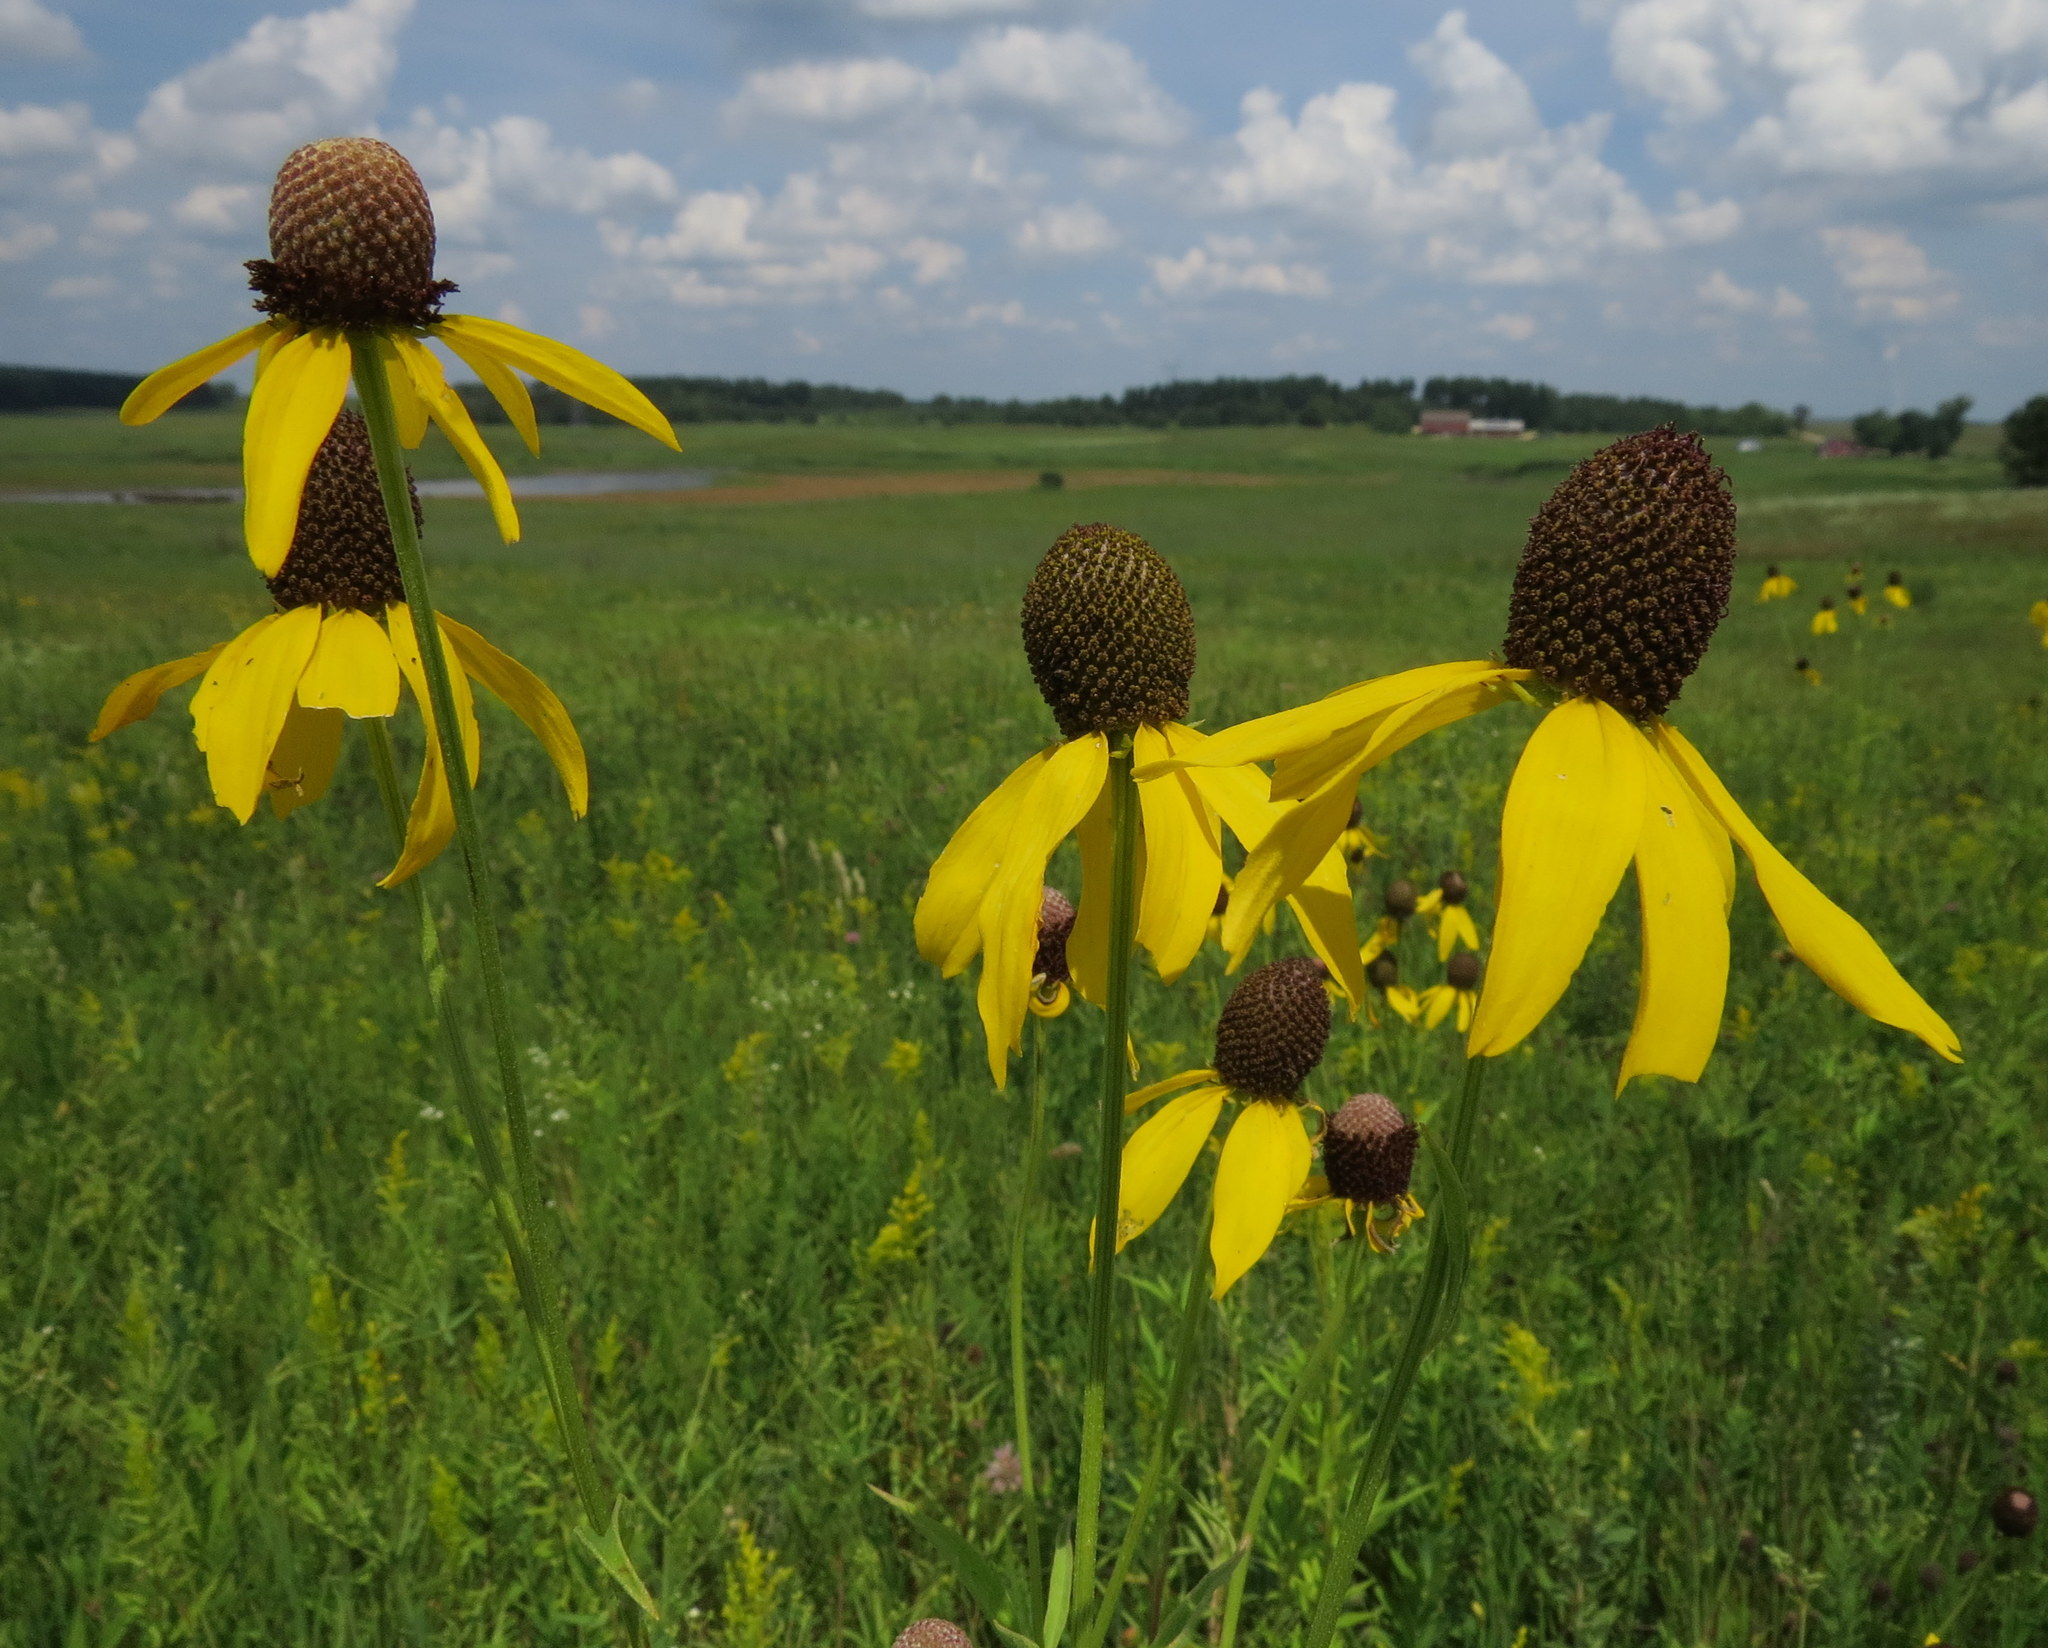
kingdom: Plantae
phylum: Tracheophyta
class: Magnoliopsida
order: Asterales
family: Asteraceae
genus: Ratibida
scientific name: Ratibida pinnata
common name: Drooping prairie-coneflower
